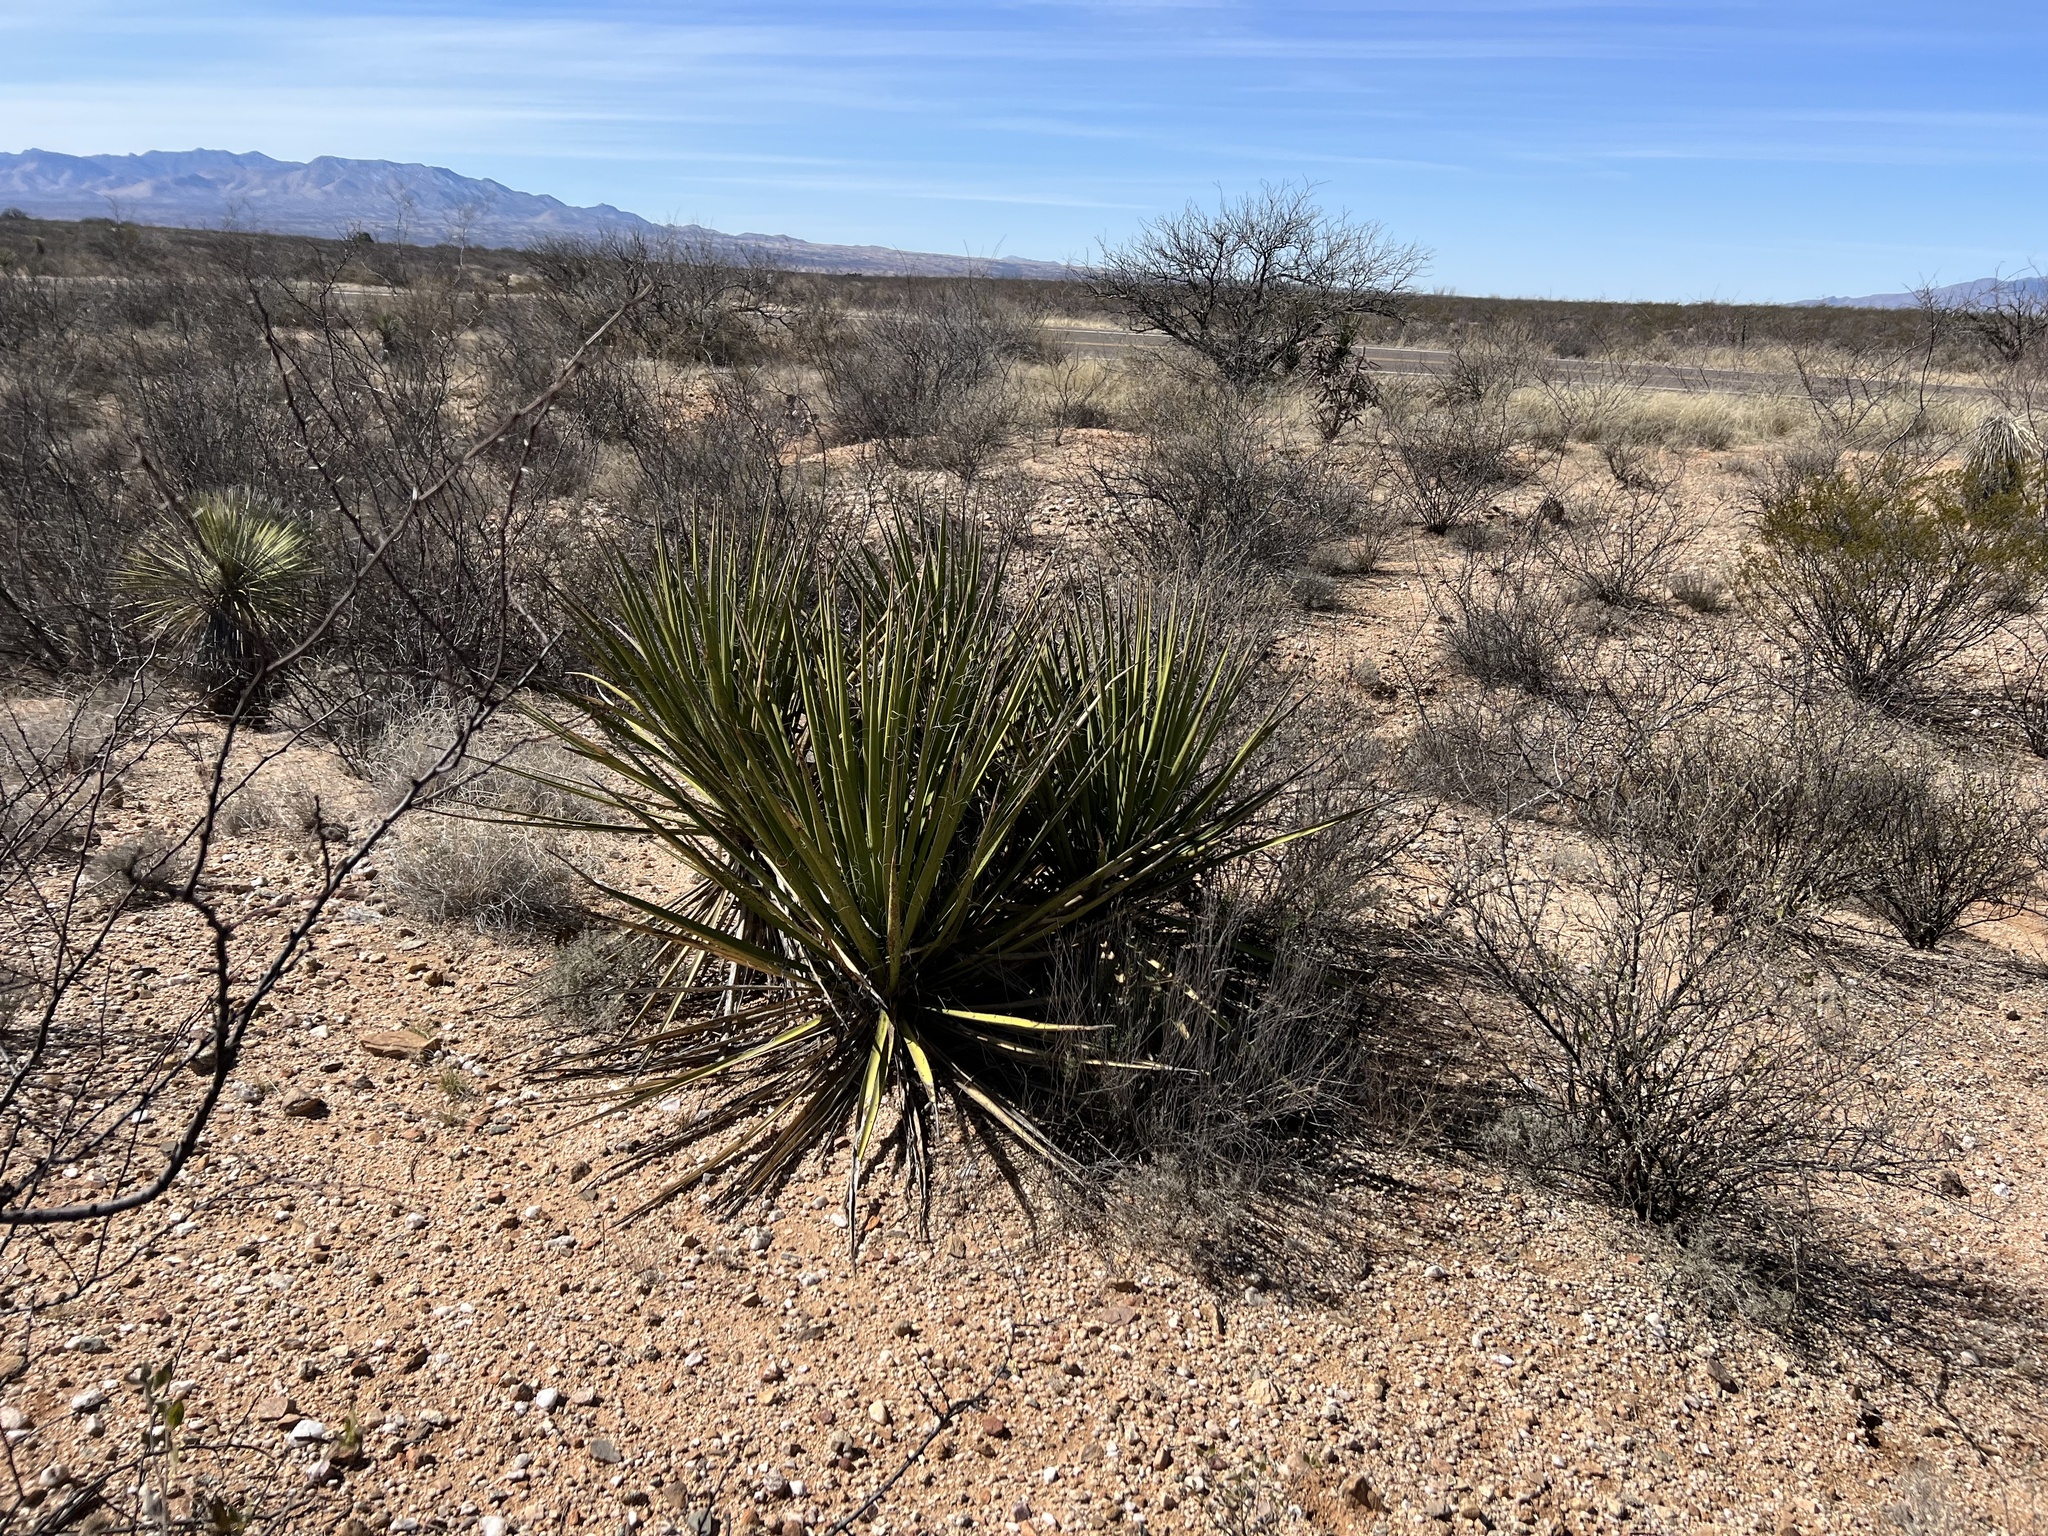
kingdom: Plantae
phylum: Tracheophyta
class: Liliopsida
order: Asparagales
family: Asparagaceae
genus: Yucca
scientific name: Yucca baccata
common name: Banana yucca
